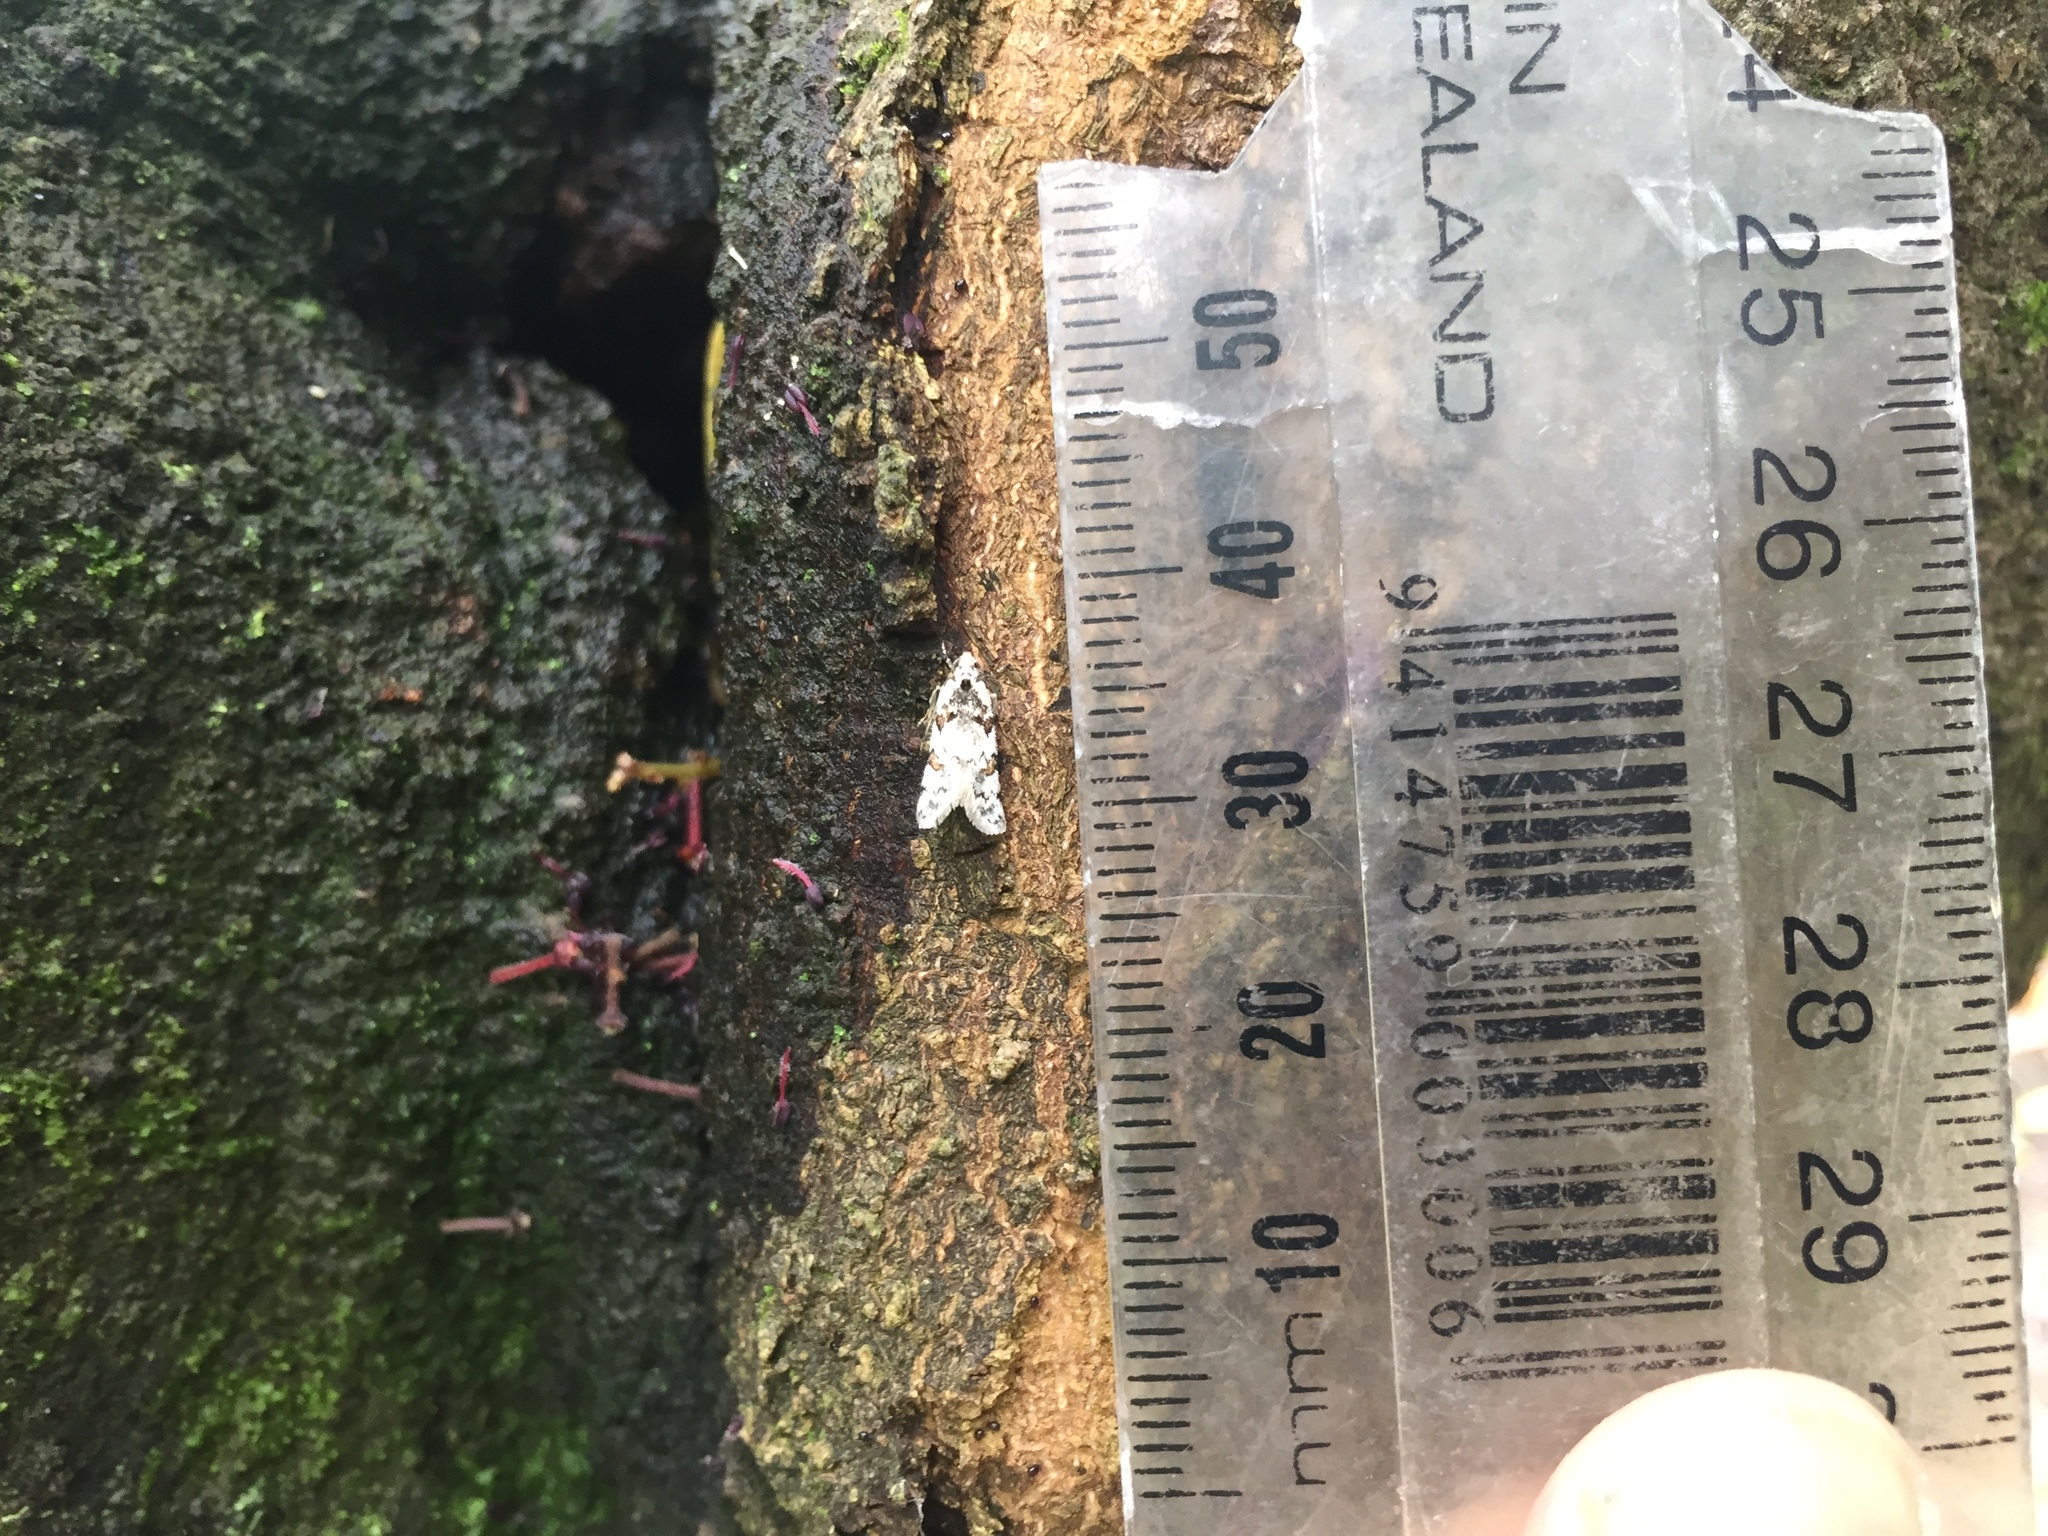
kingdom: Animalia
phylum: Arthropoda
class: Insecta
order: Lepidoptera
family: Oecophoridae
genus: Trachypepla
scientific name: Trachypepla galaxias
